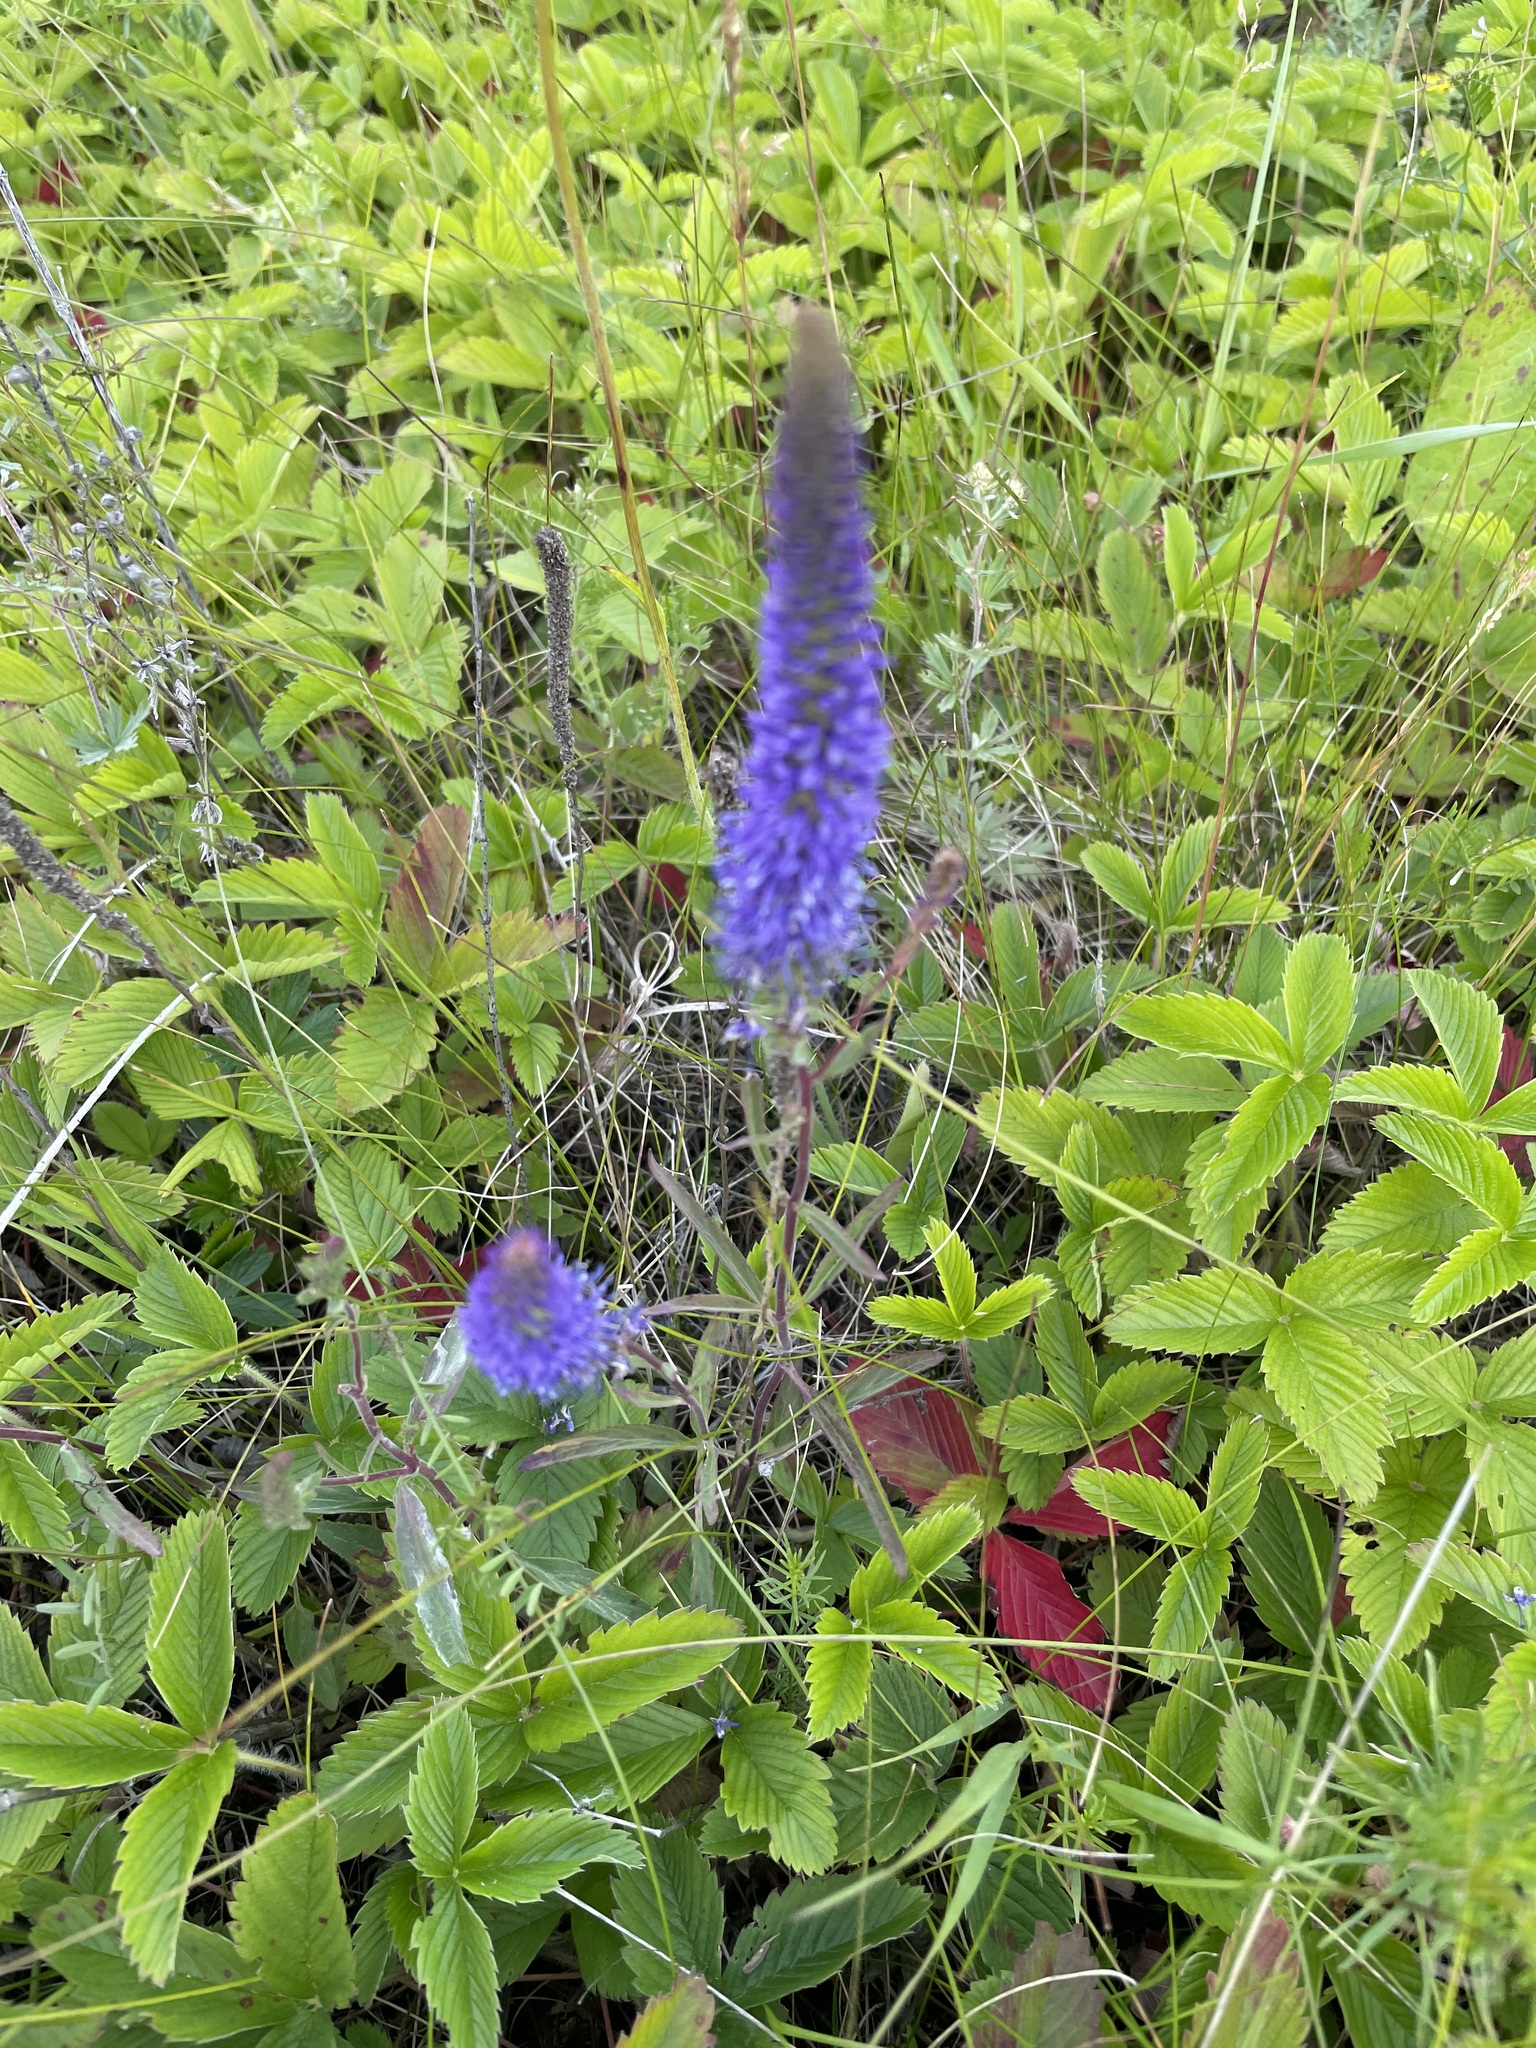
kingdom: Plantae
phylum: Tracheophyta
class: Magnoliopsida
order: Lamiales
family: Plantaginaceae
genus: Veronica
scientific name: Veronica spicata
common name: Spiked speedwell
